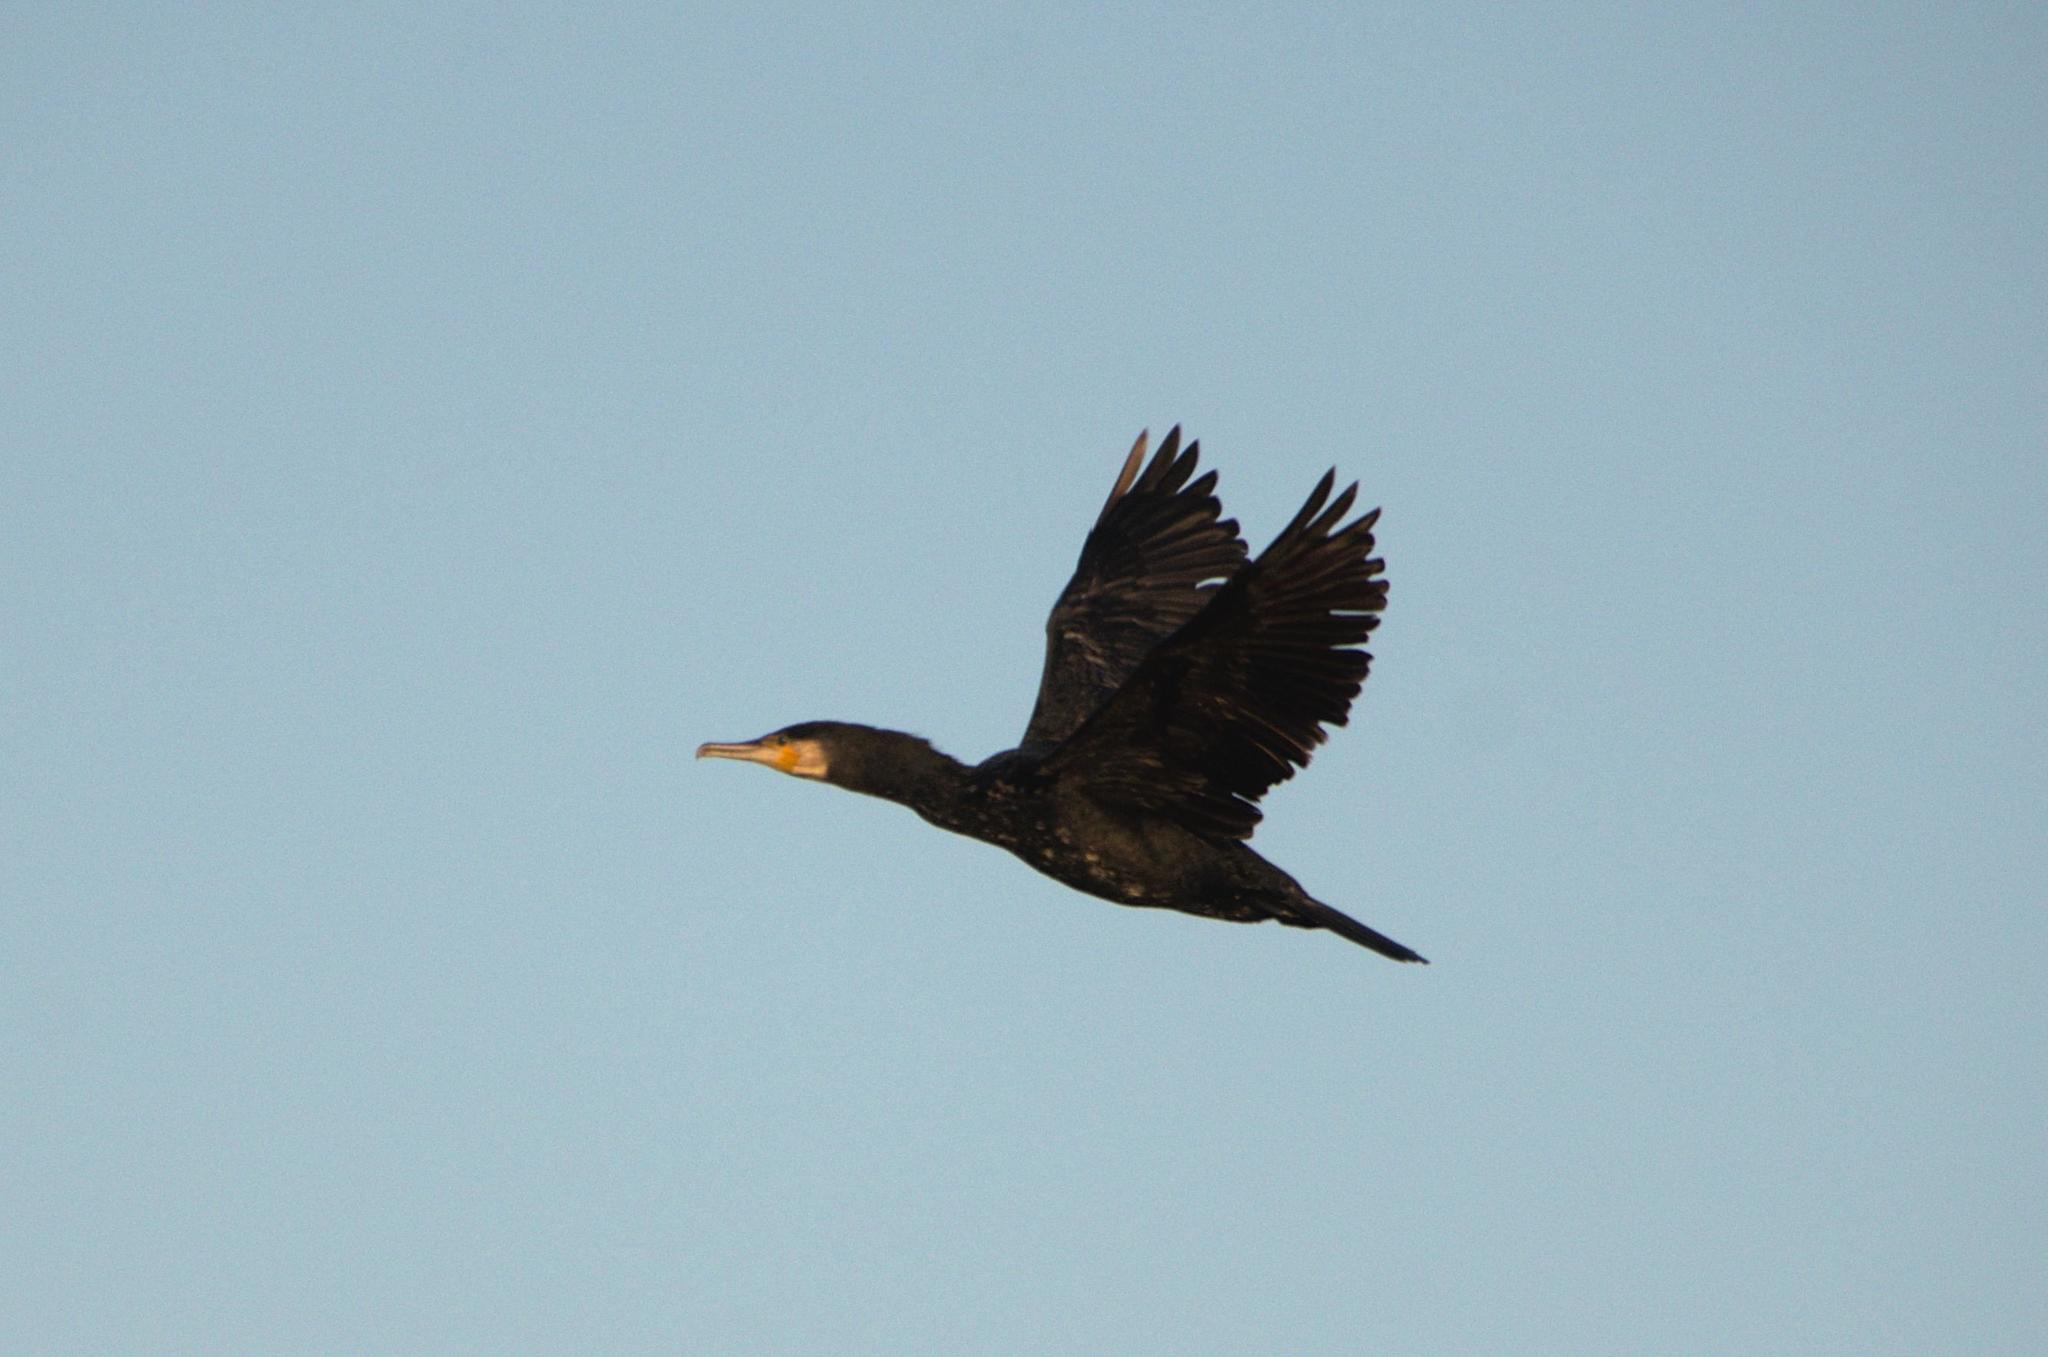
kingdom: Animalia
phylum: Chordata
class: Aves
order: Suliformes
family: Phalacrocoracidae
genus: Phalacrocorax
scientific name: Phalacrocorax carbo
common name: Great cormorant
